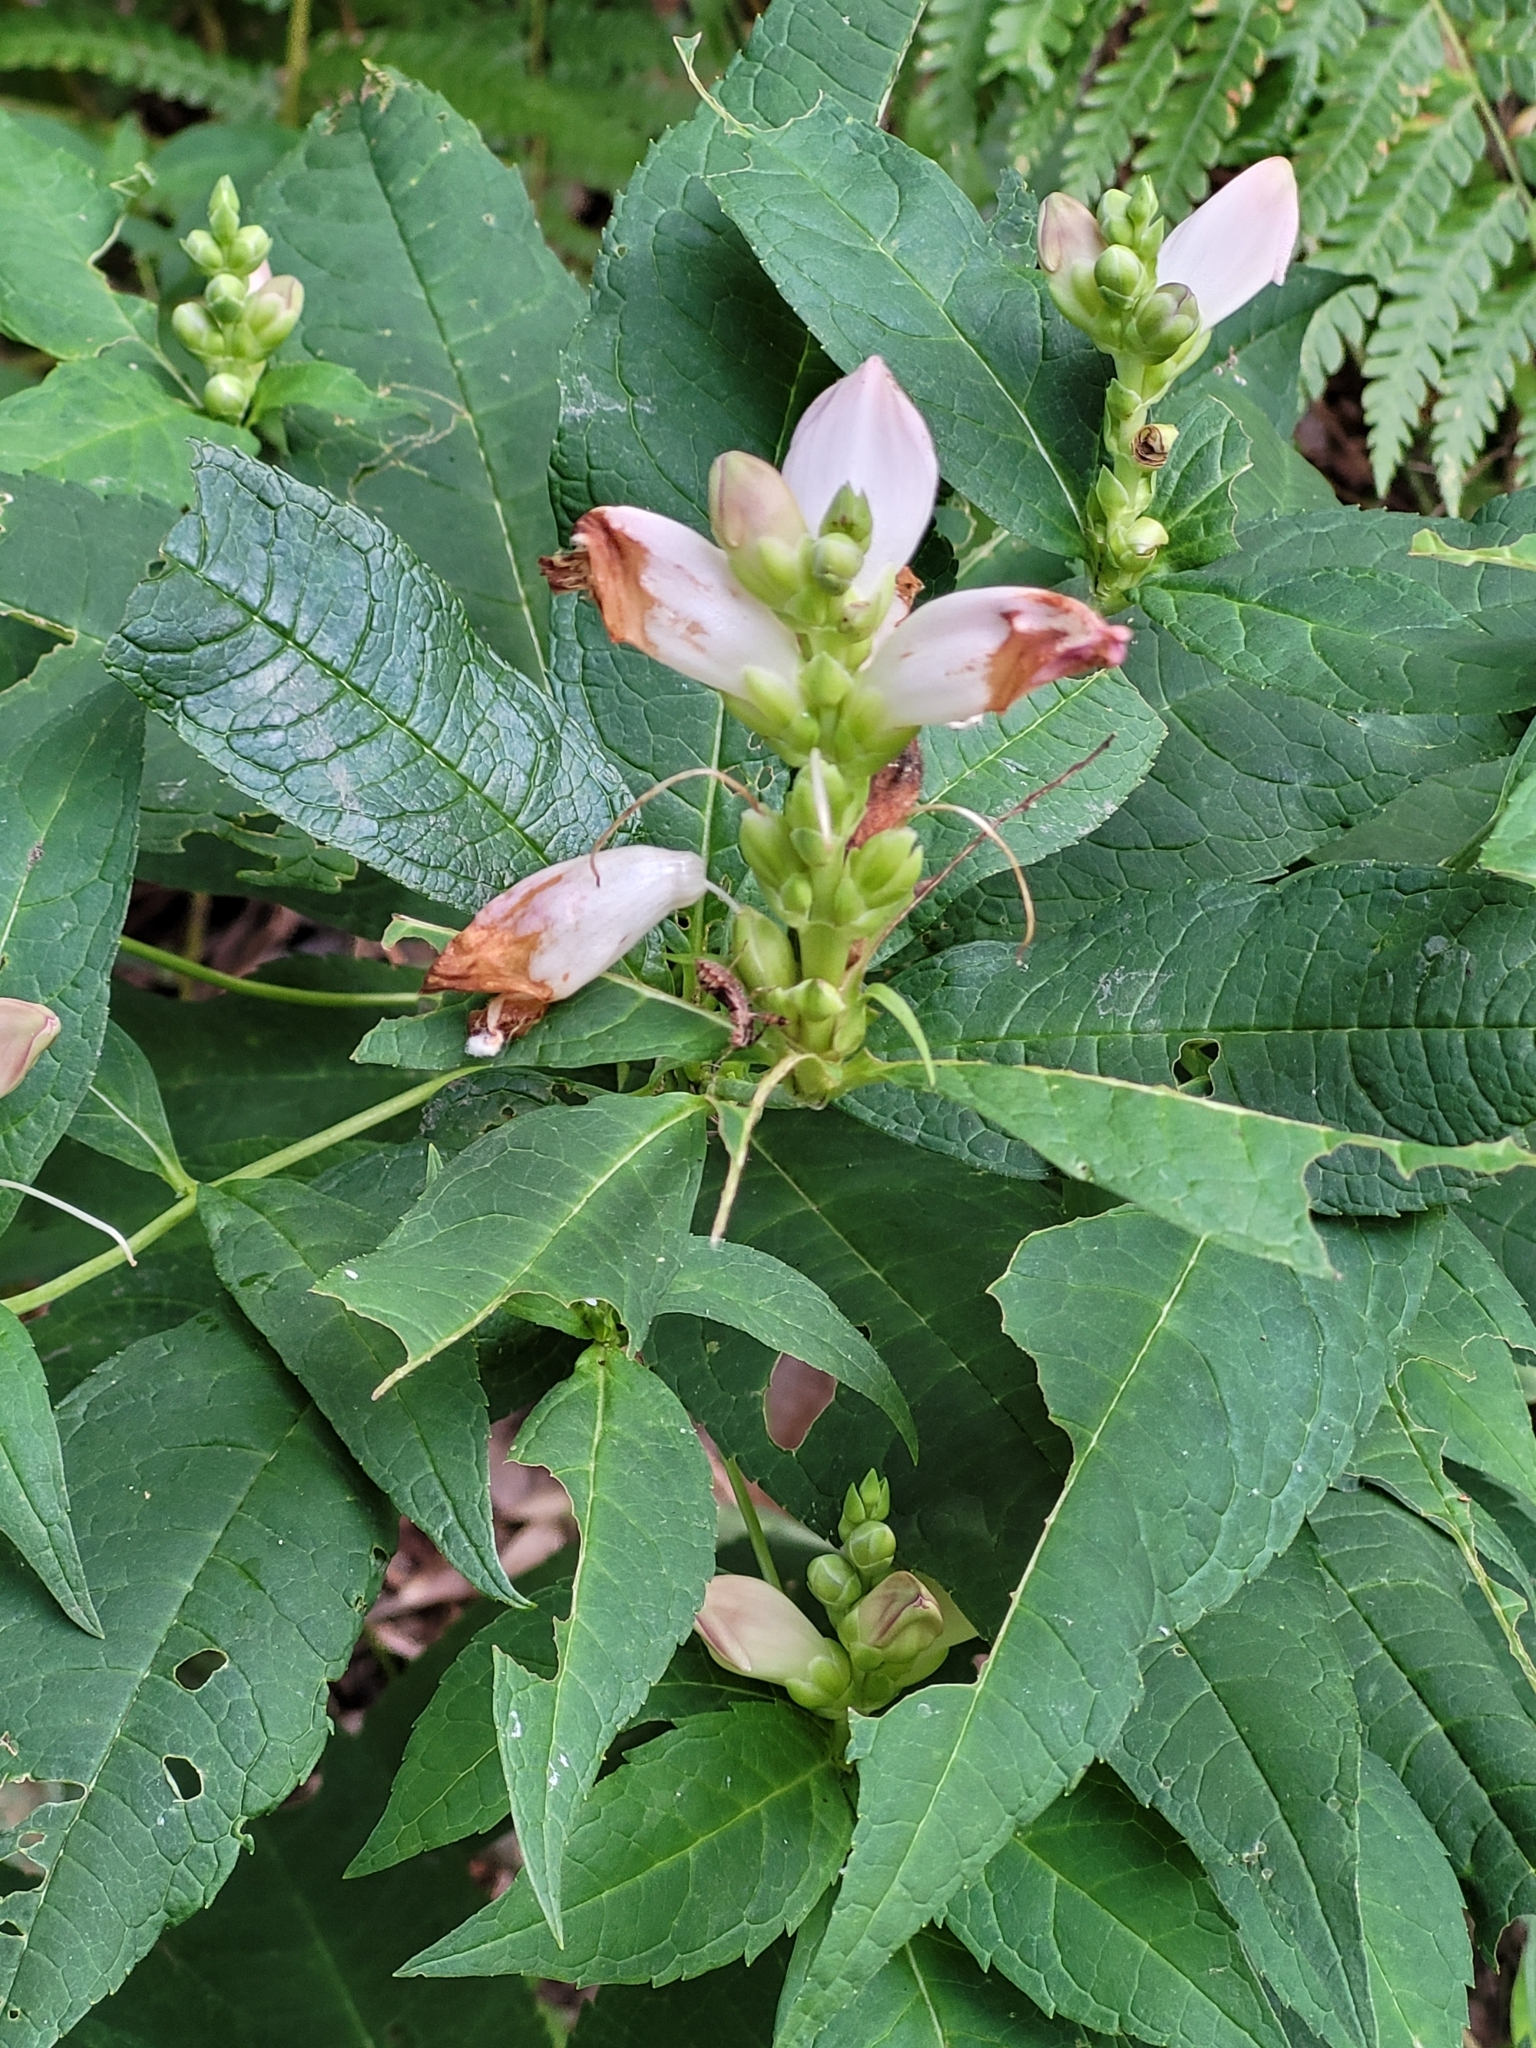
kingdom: Plantae
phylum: Tracheophyta
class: Magnoliopsida
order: Lamiales
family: Plantaginaceae
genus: Chelone
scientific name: Chelone glabra
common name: Snakehead
